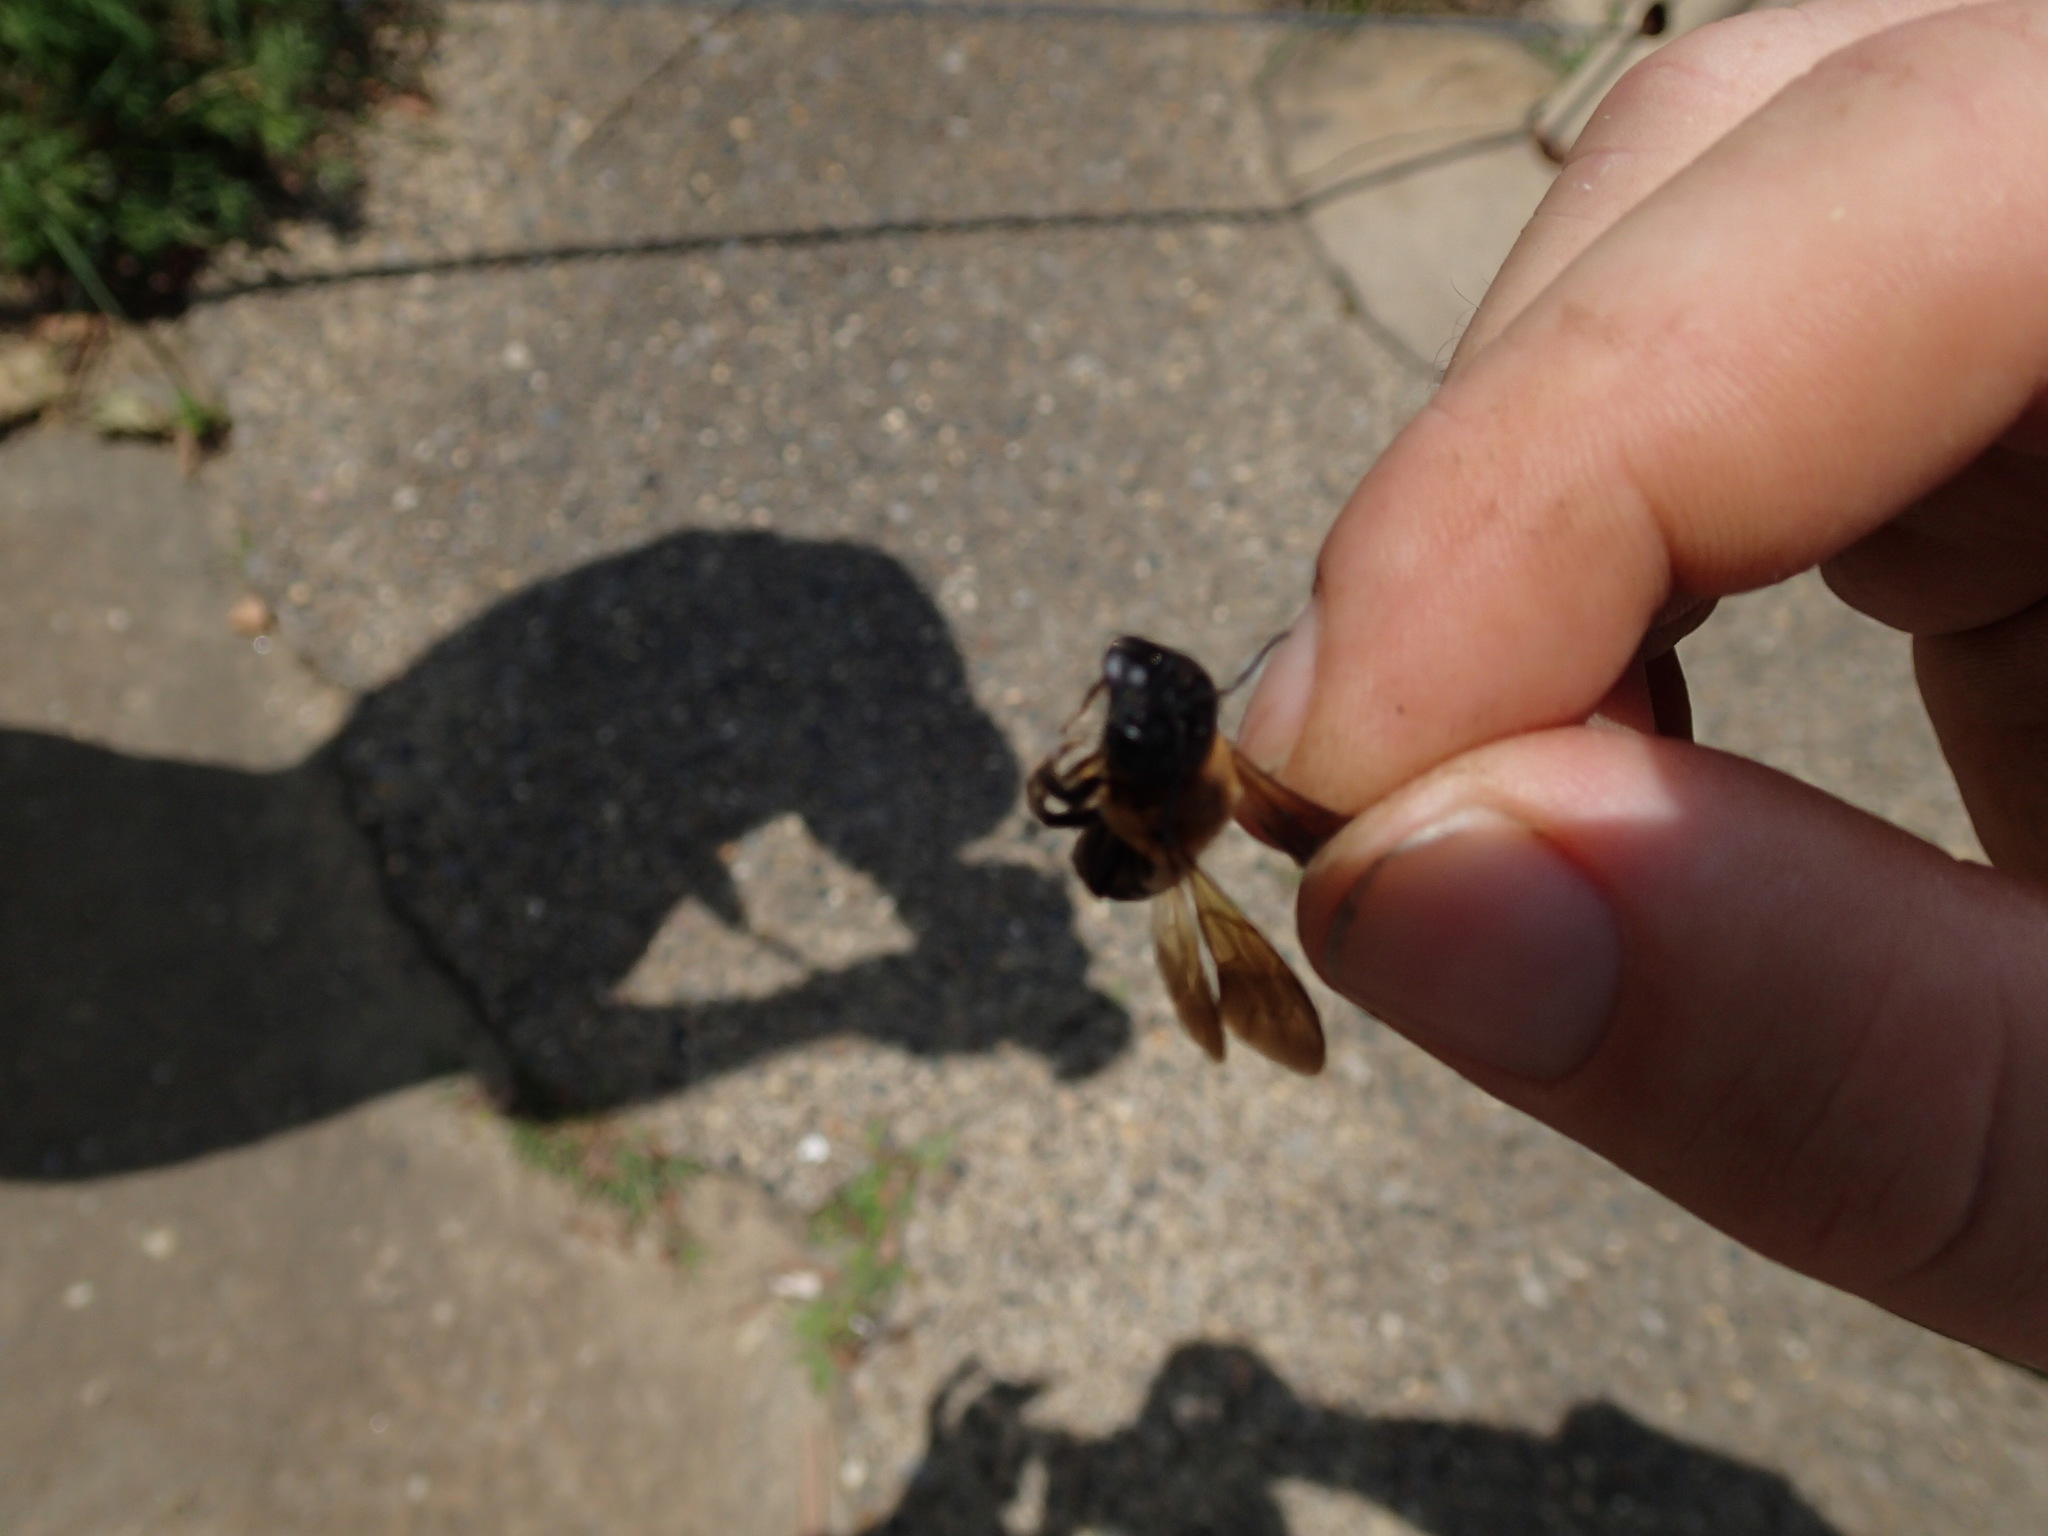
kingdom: Animalia
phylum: Arthropoda
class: Insecta
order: Hymenoptera
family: Megachilidae
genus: Megachile
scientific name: Megachile sculpturalis
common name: Sculptured resin bee
